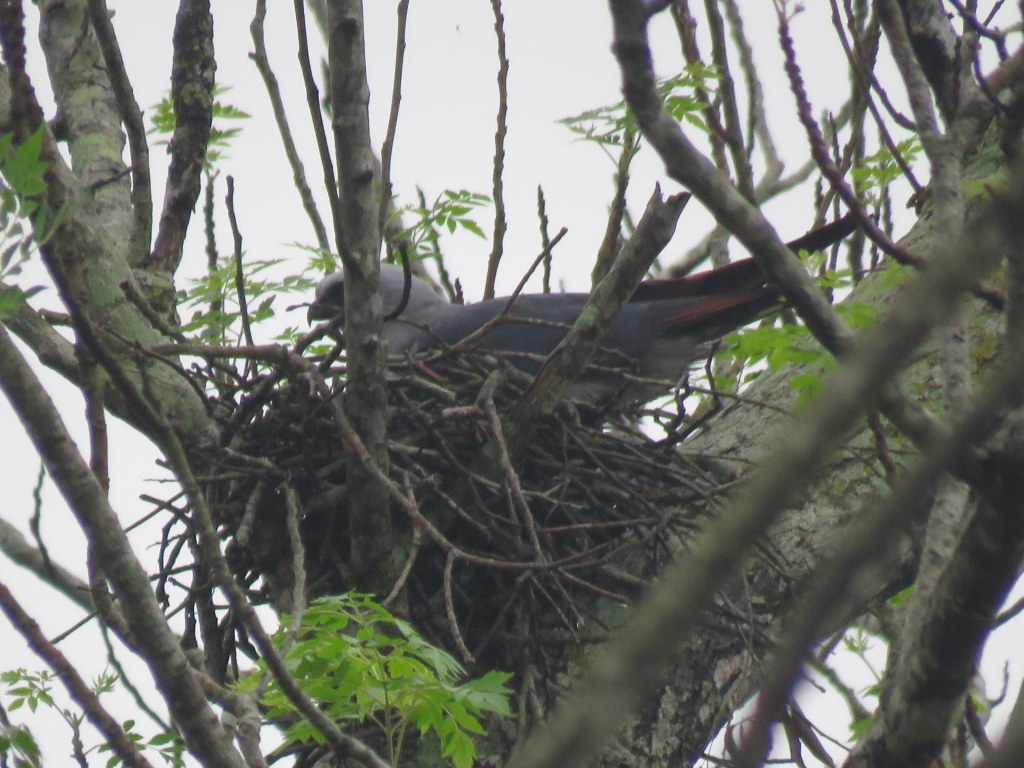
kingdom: Animalia
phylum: Chordata
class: Aves
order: Accipitriformes
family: Accipitridae
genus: Ictinia
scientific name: Ictinia plumbea
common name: Plumbeous kite
